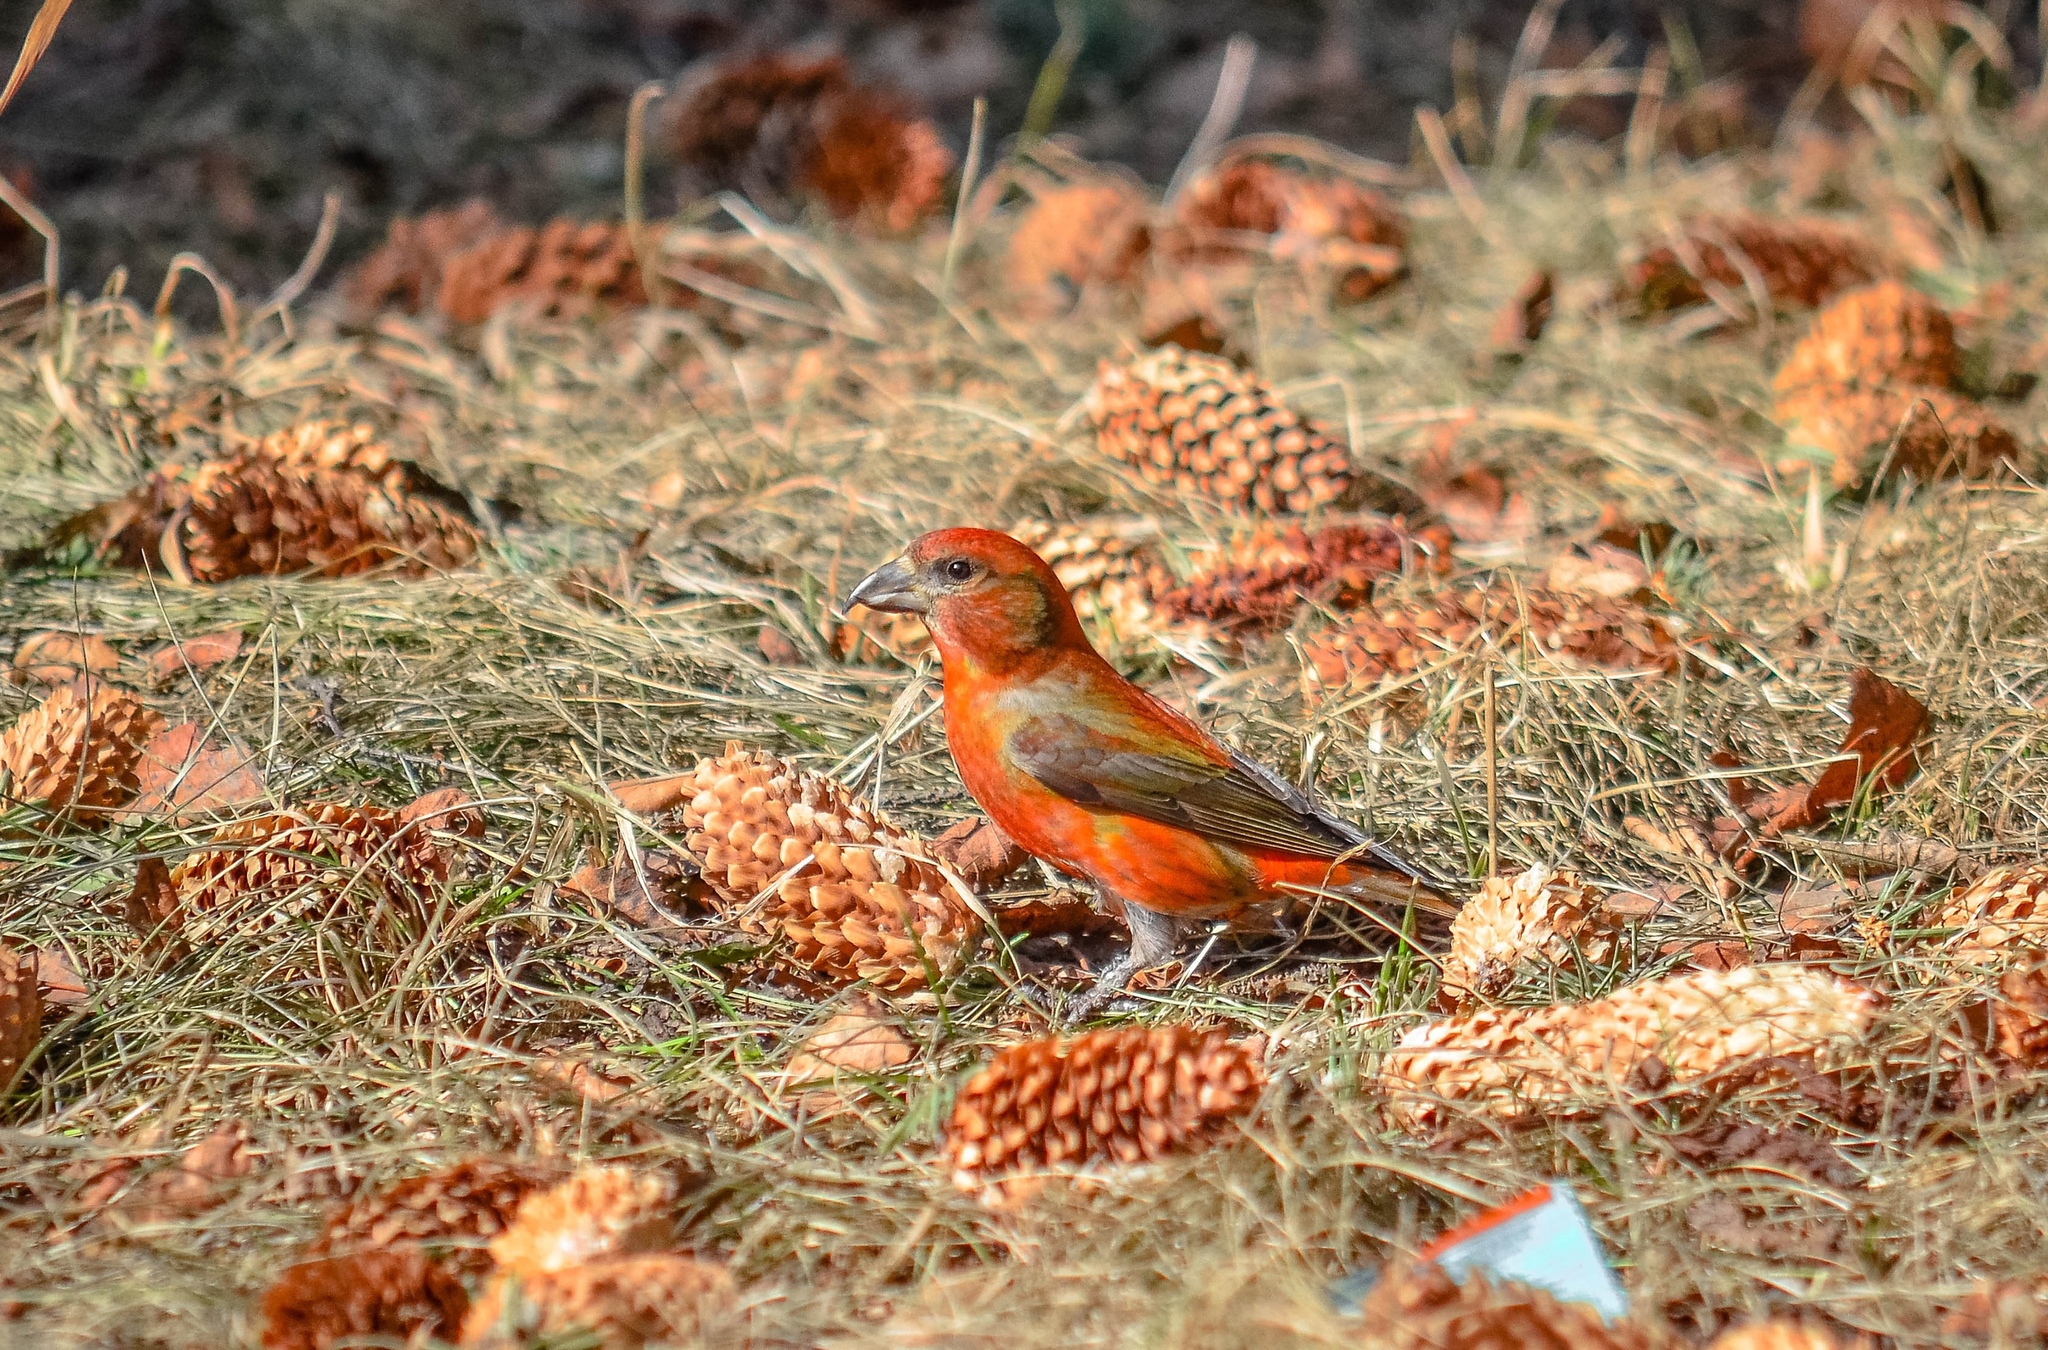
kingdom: Animalia
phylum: Chordata
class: Aves
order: Passeriformes
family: Fringillidae
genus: Loxia
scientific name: Loxia curvirostra
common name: Red crossbill
